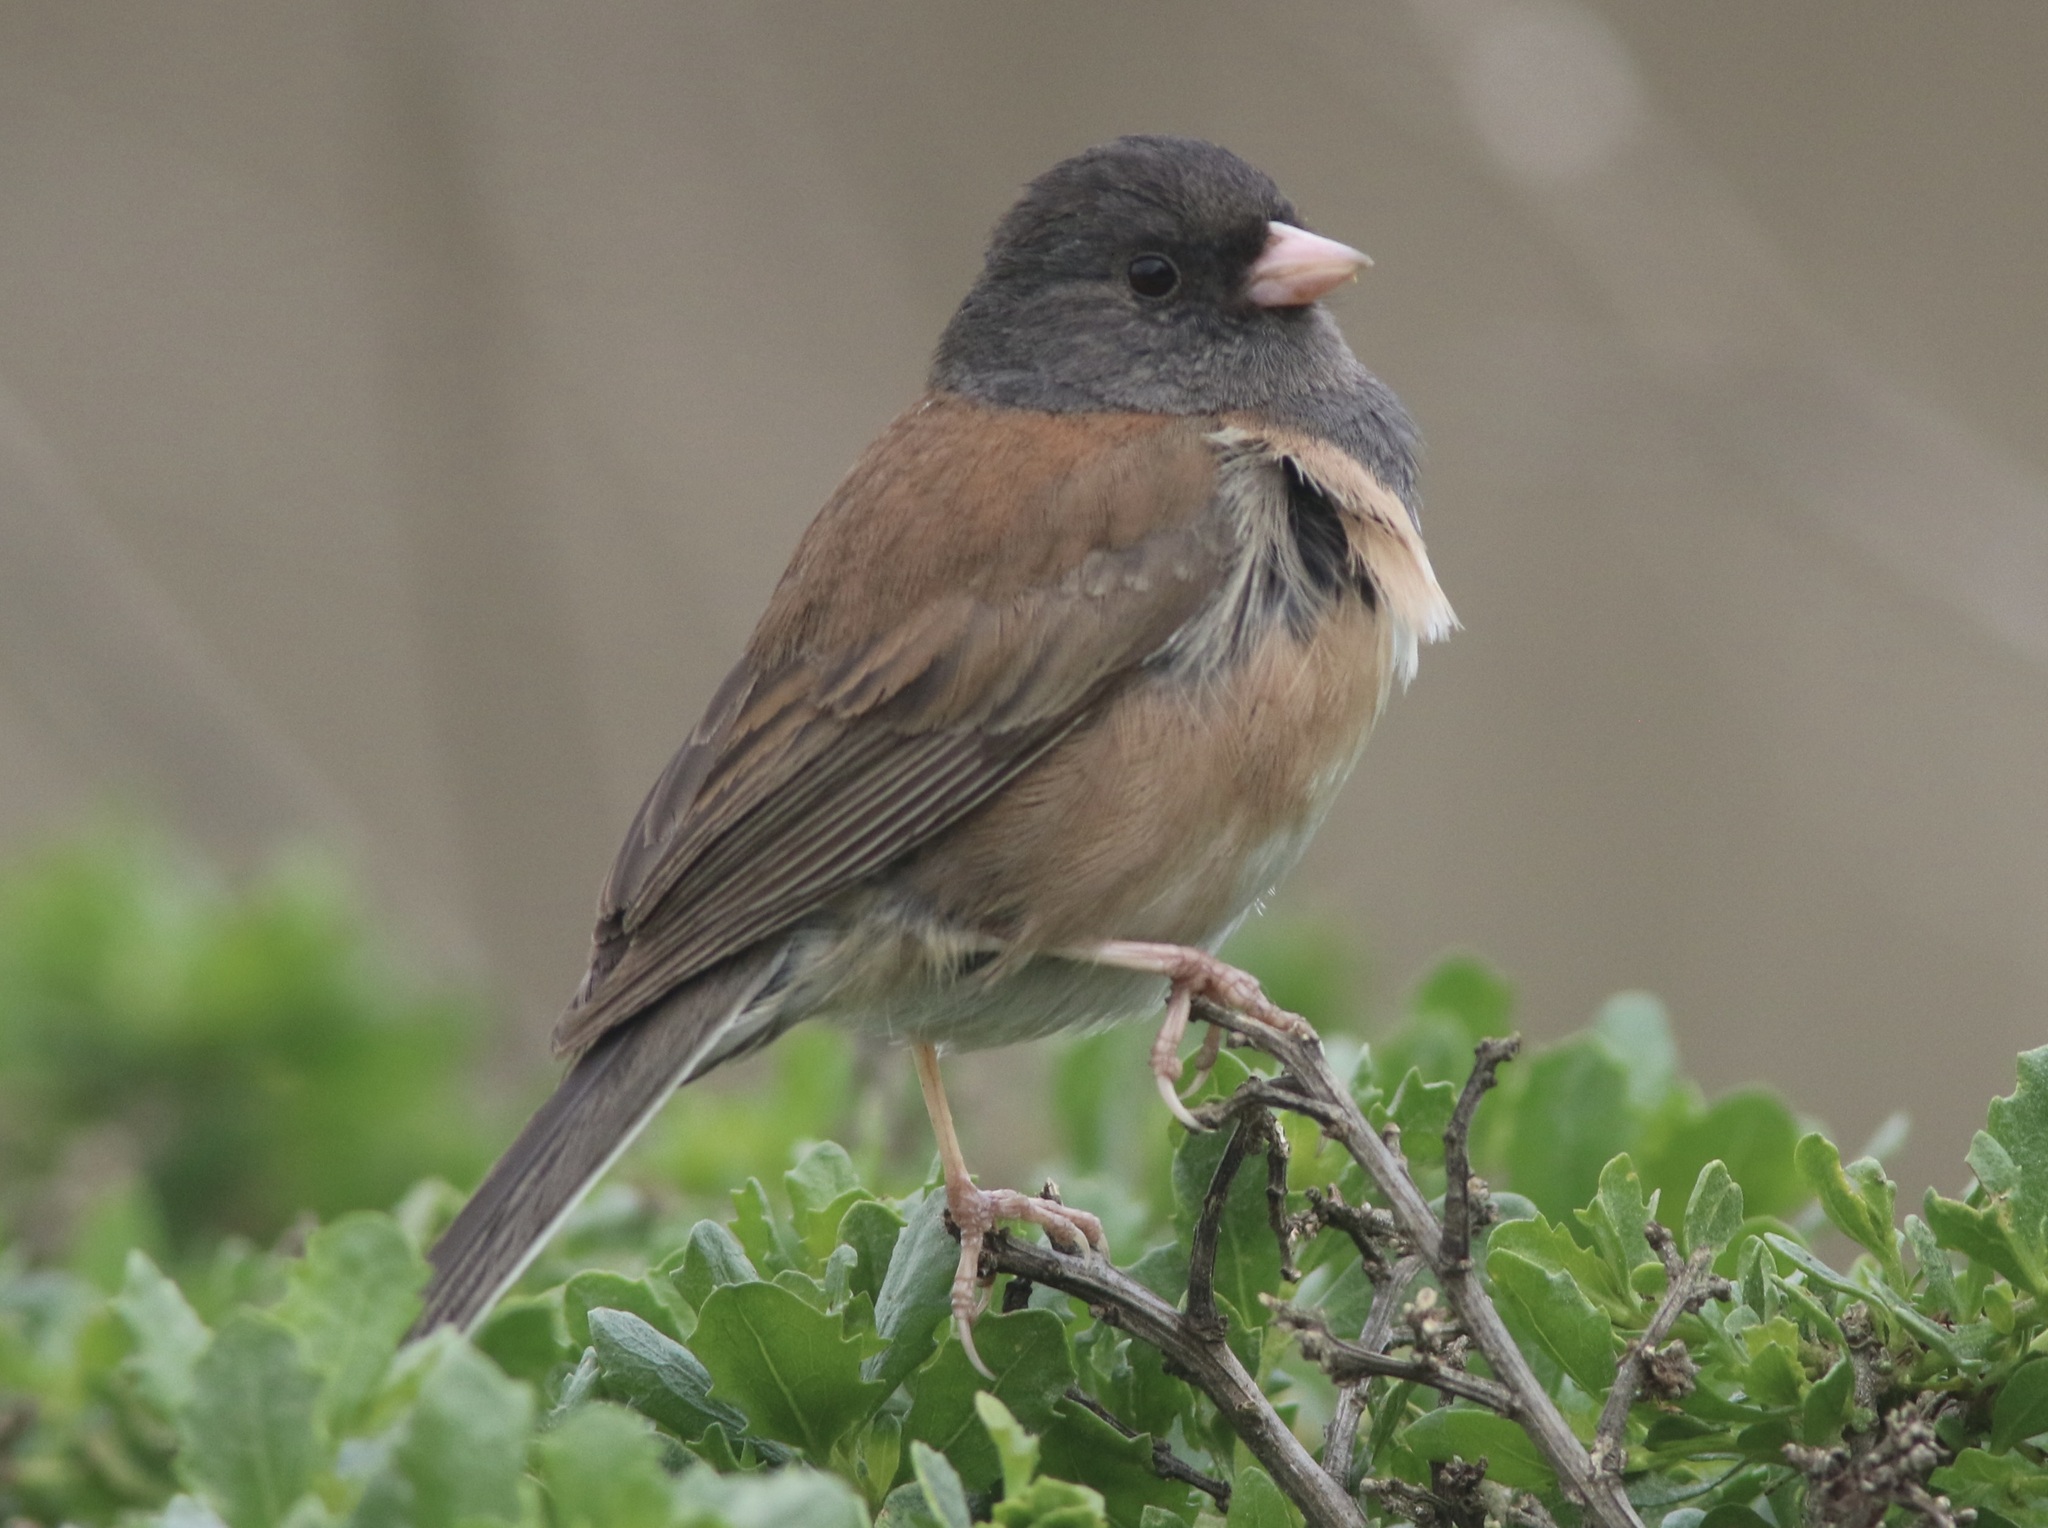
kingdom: Animalia
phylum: Chordata
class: Aves
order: Passeriformes
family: Passerellidae
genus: Junco
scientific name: Junco hyemalis
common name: Dark-eyed junco
